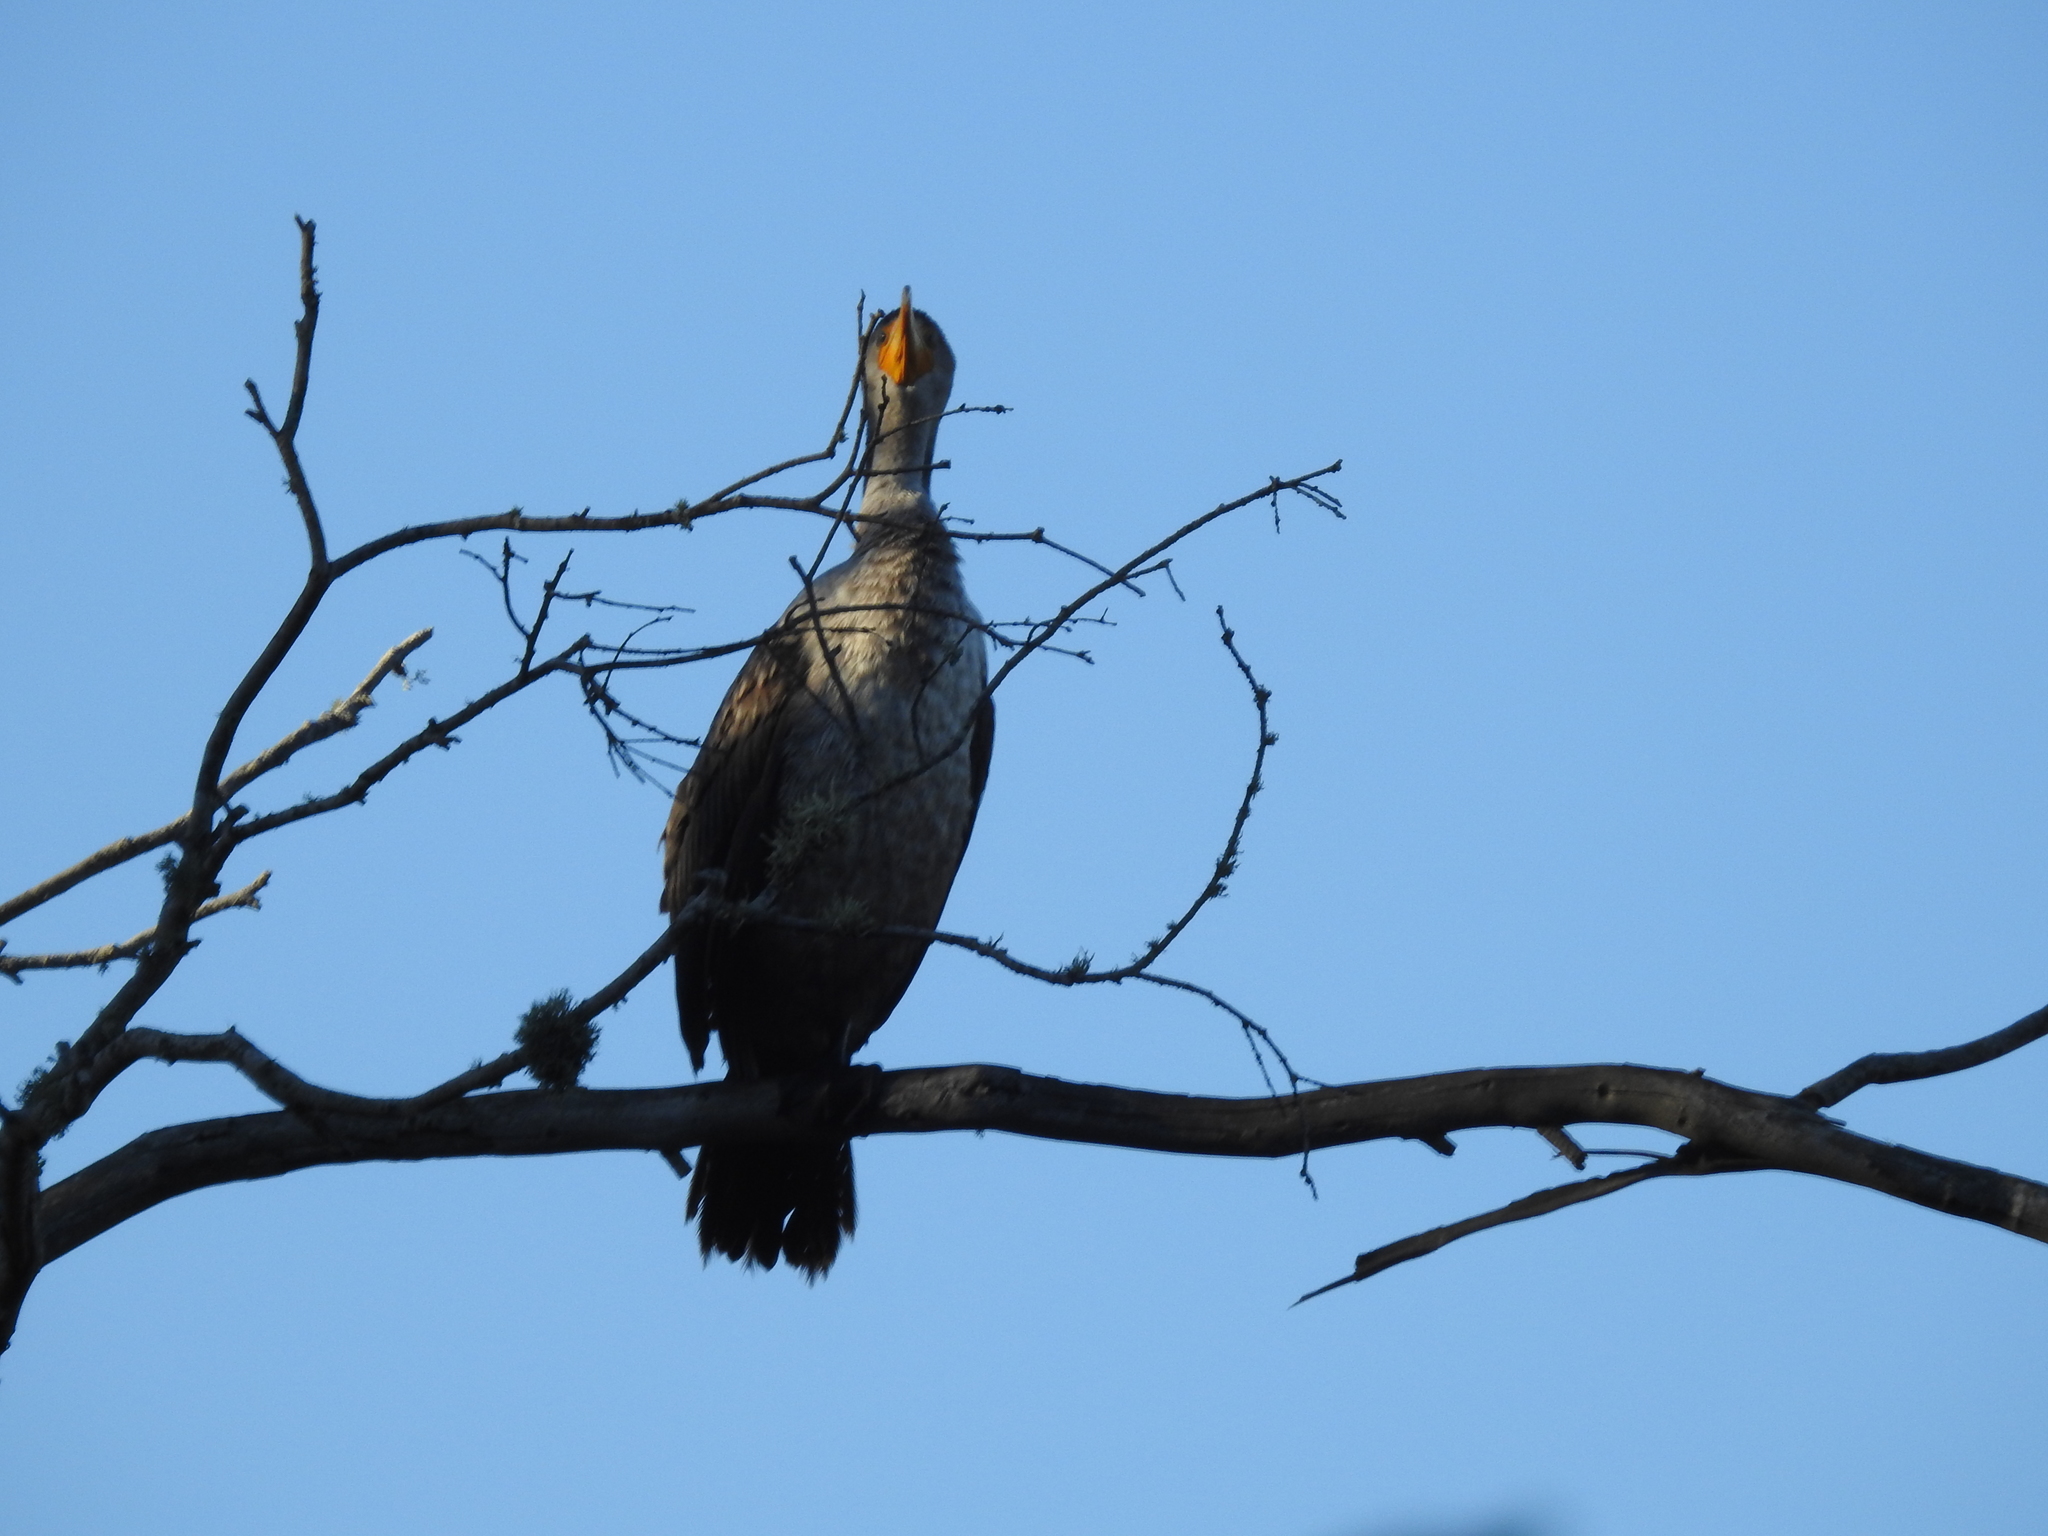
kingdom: Animalia
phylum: Chordata
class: Aves
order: Suliformes
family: Phalacrocoracidae
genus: Phalacrocorax
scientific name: Phalacrocorax auritus
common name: Double-crested cormorant
